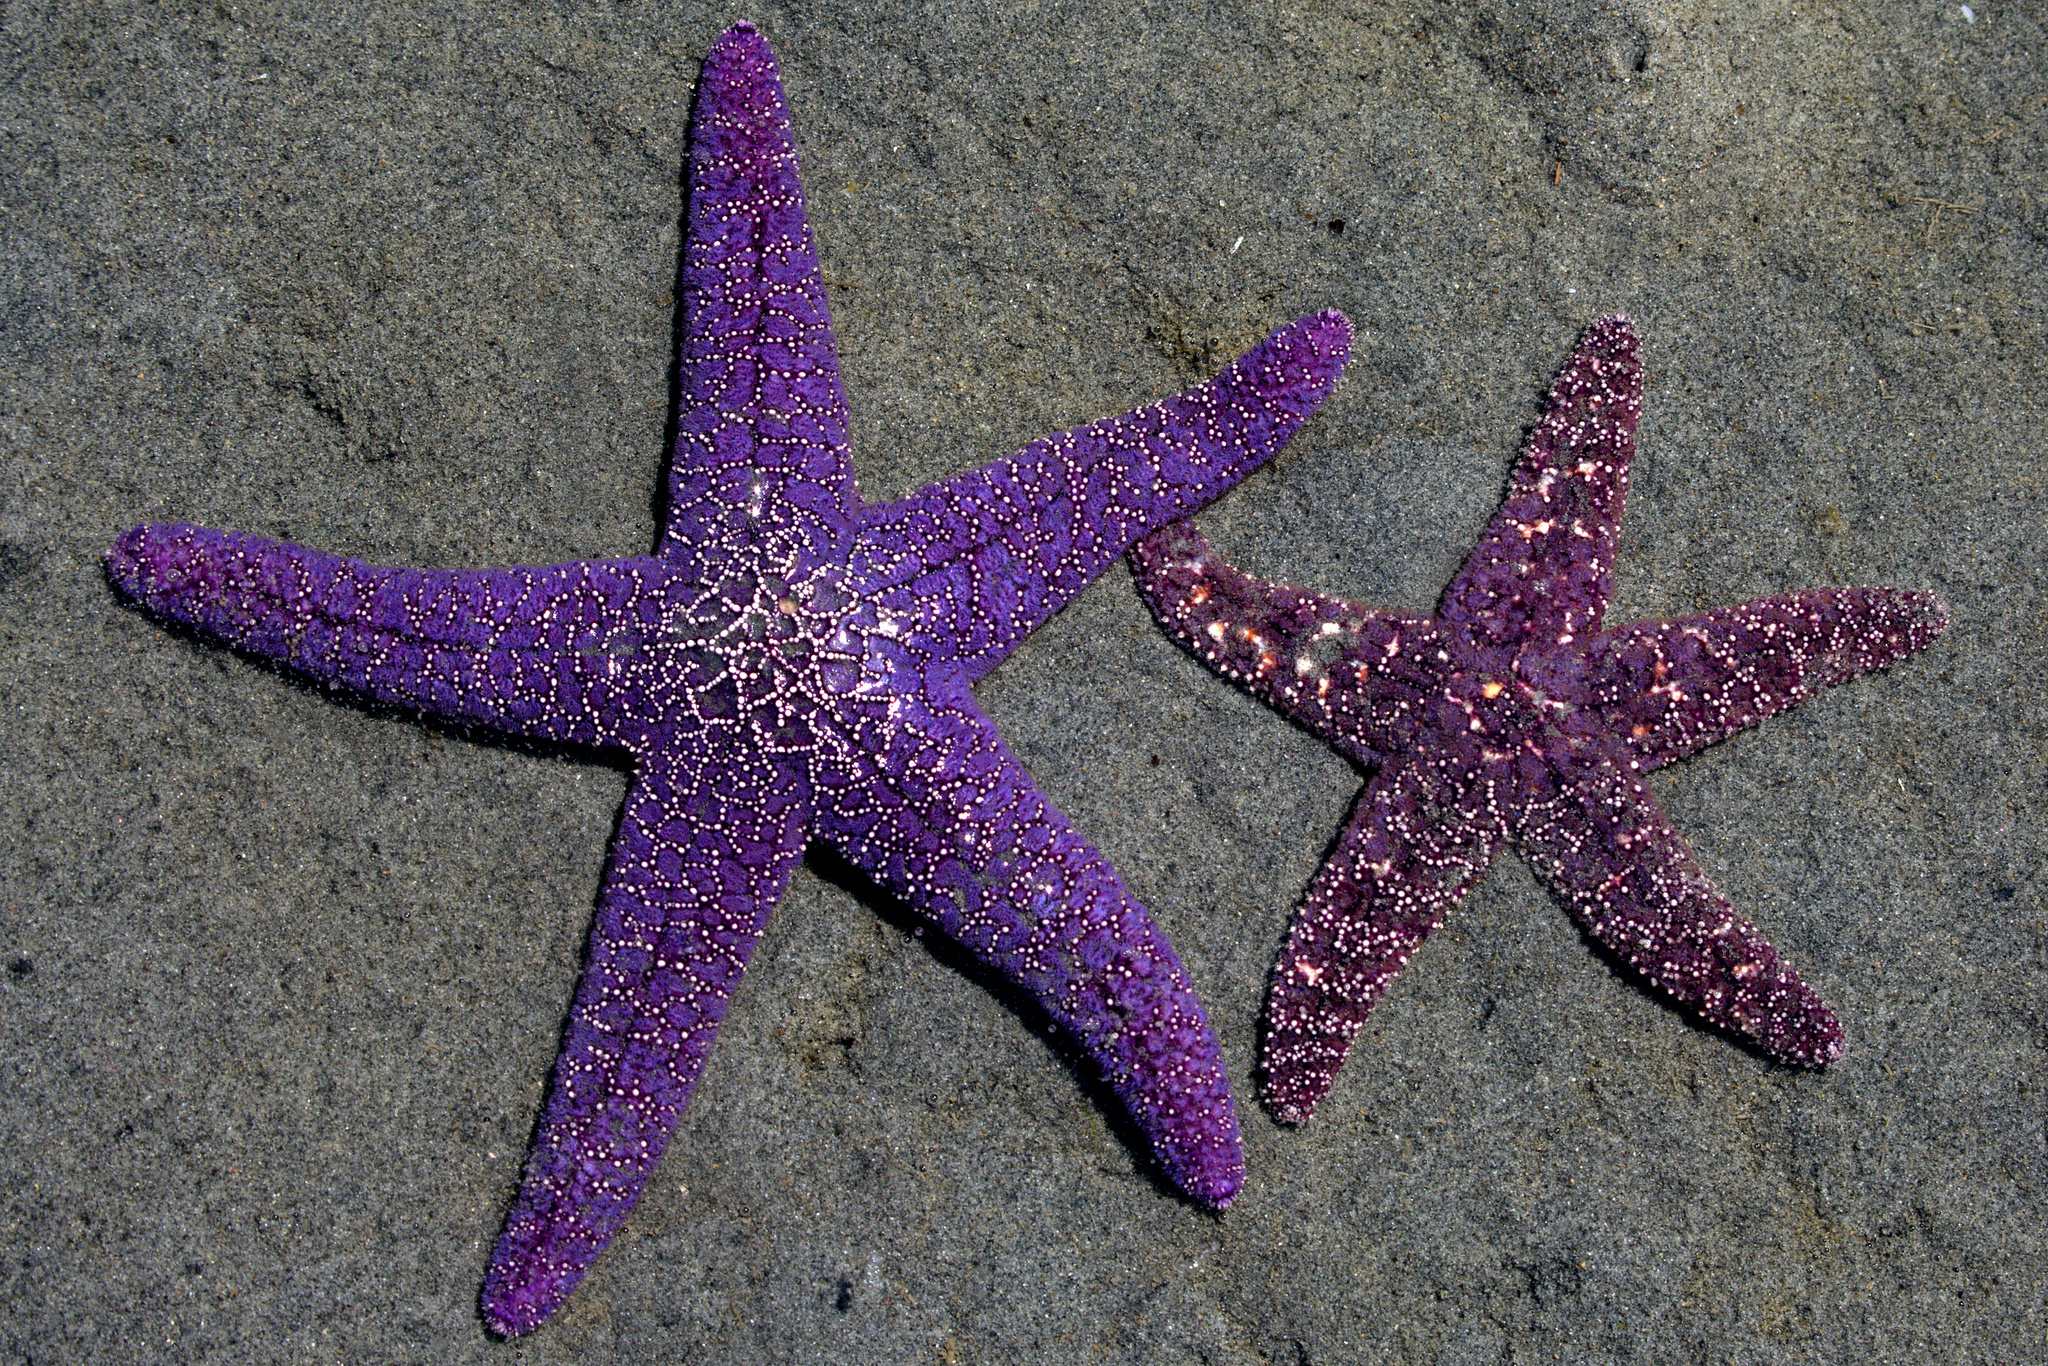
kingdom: Animalia
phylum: Echinodermata
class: Asteroidea
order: Forcipulatida
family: Asteriidae
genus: Pisaster
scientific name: Pisaster ochraceus
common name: Ochre stars
